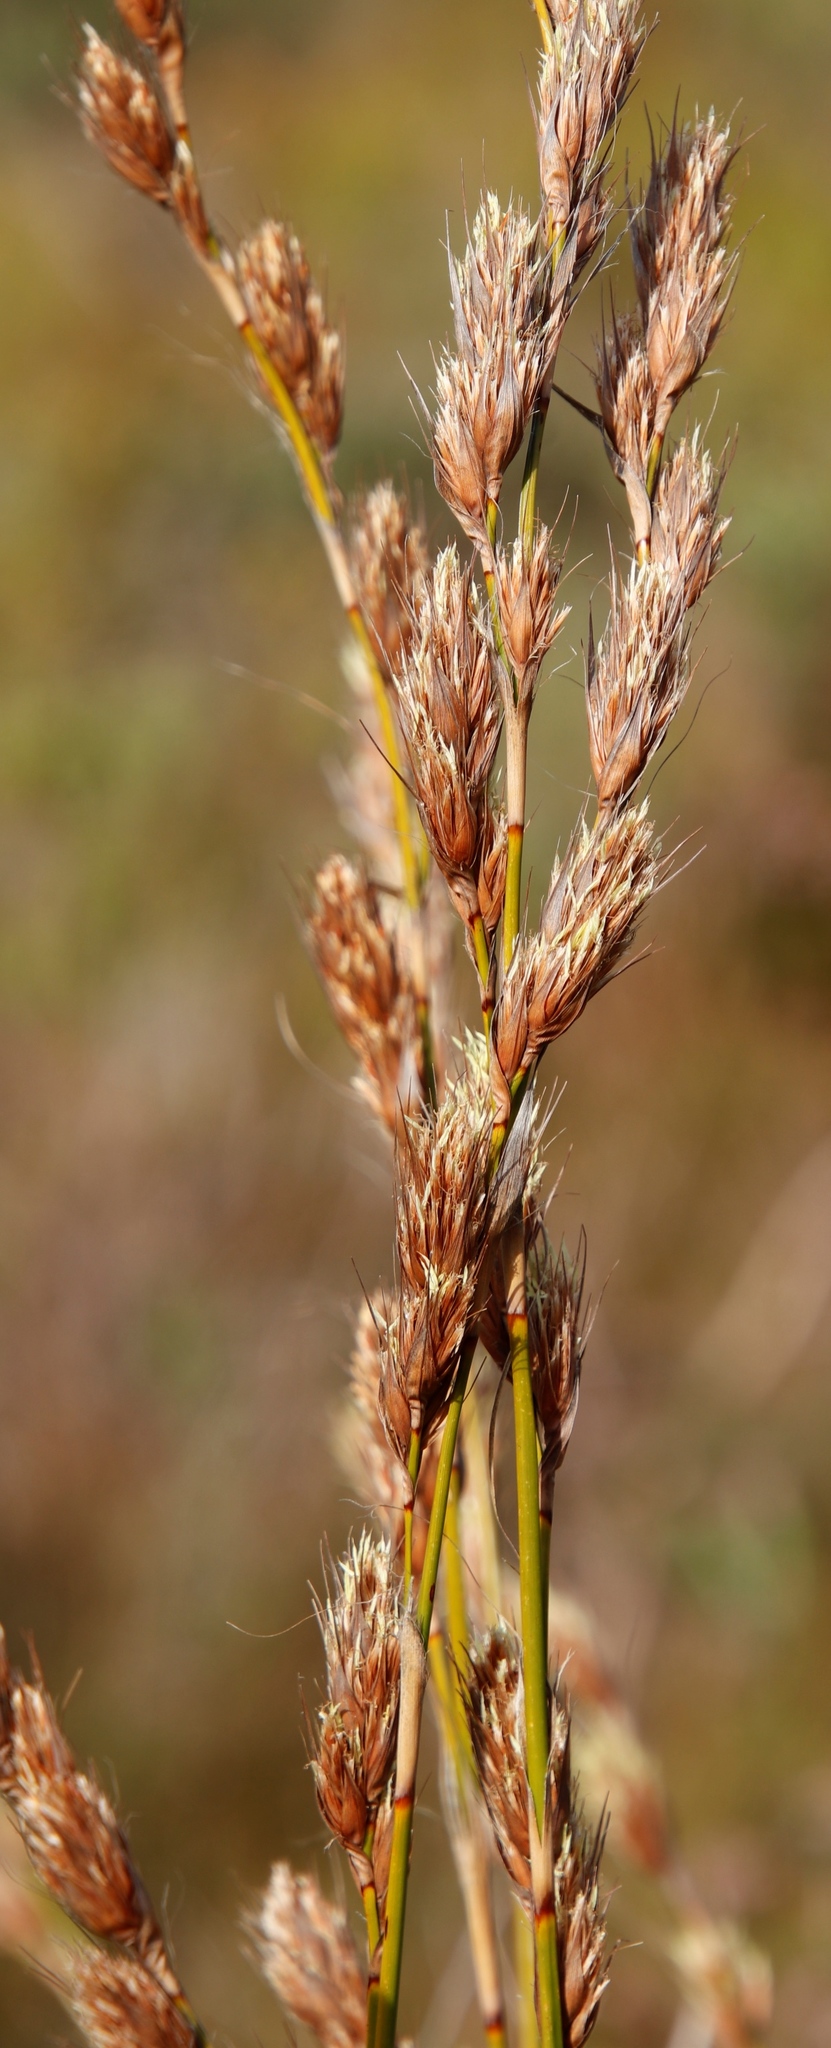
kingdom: Plantae
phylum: Tracheophyta
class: Liliopsida
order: Poales
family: Cyperaceae
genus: Tetraria
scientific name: Tetraria bromoides
